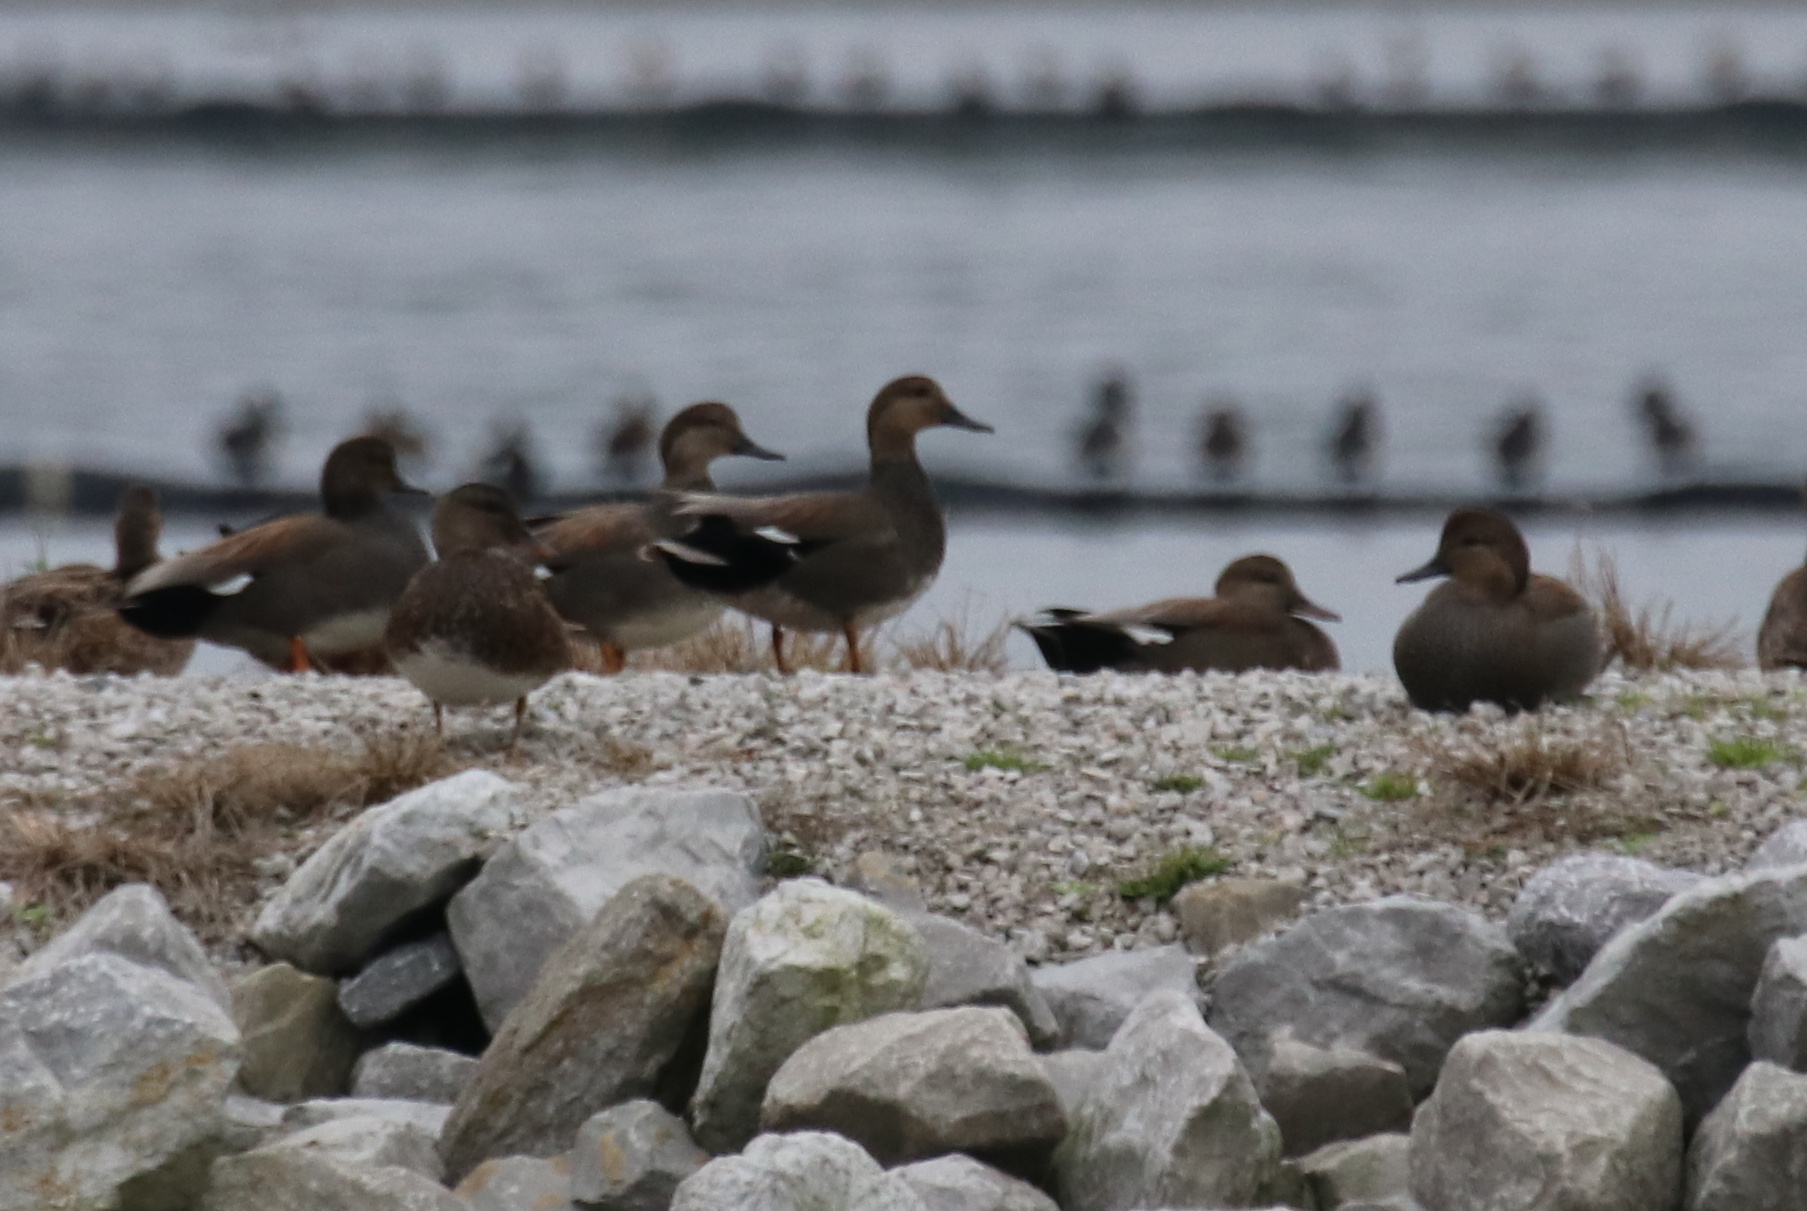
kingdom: Animalia
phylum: Chordata
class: Aves
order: Anseriformes
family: Anatidae
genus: Mareca
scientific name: Mareca strepera
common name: Gadwall
